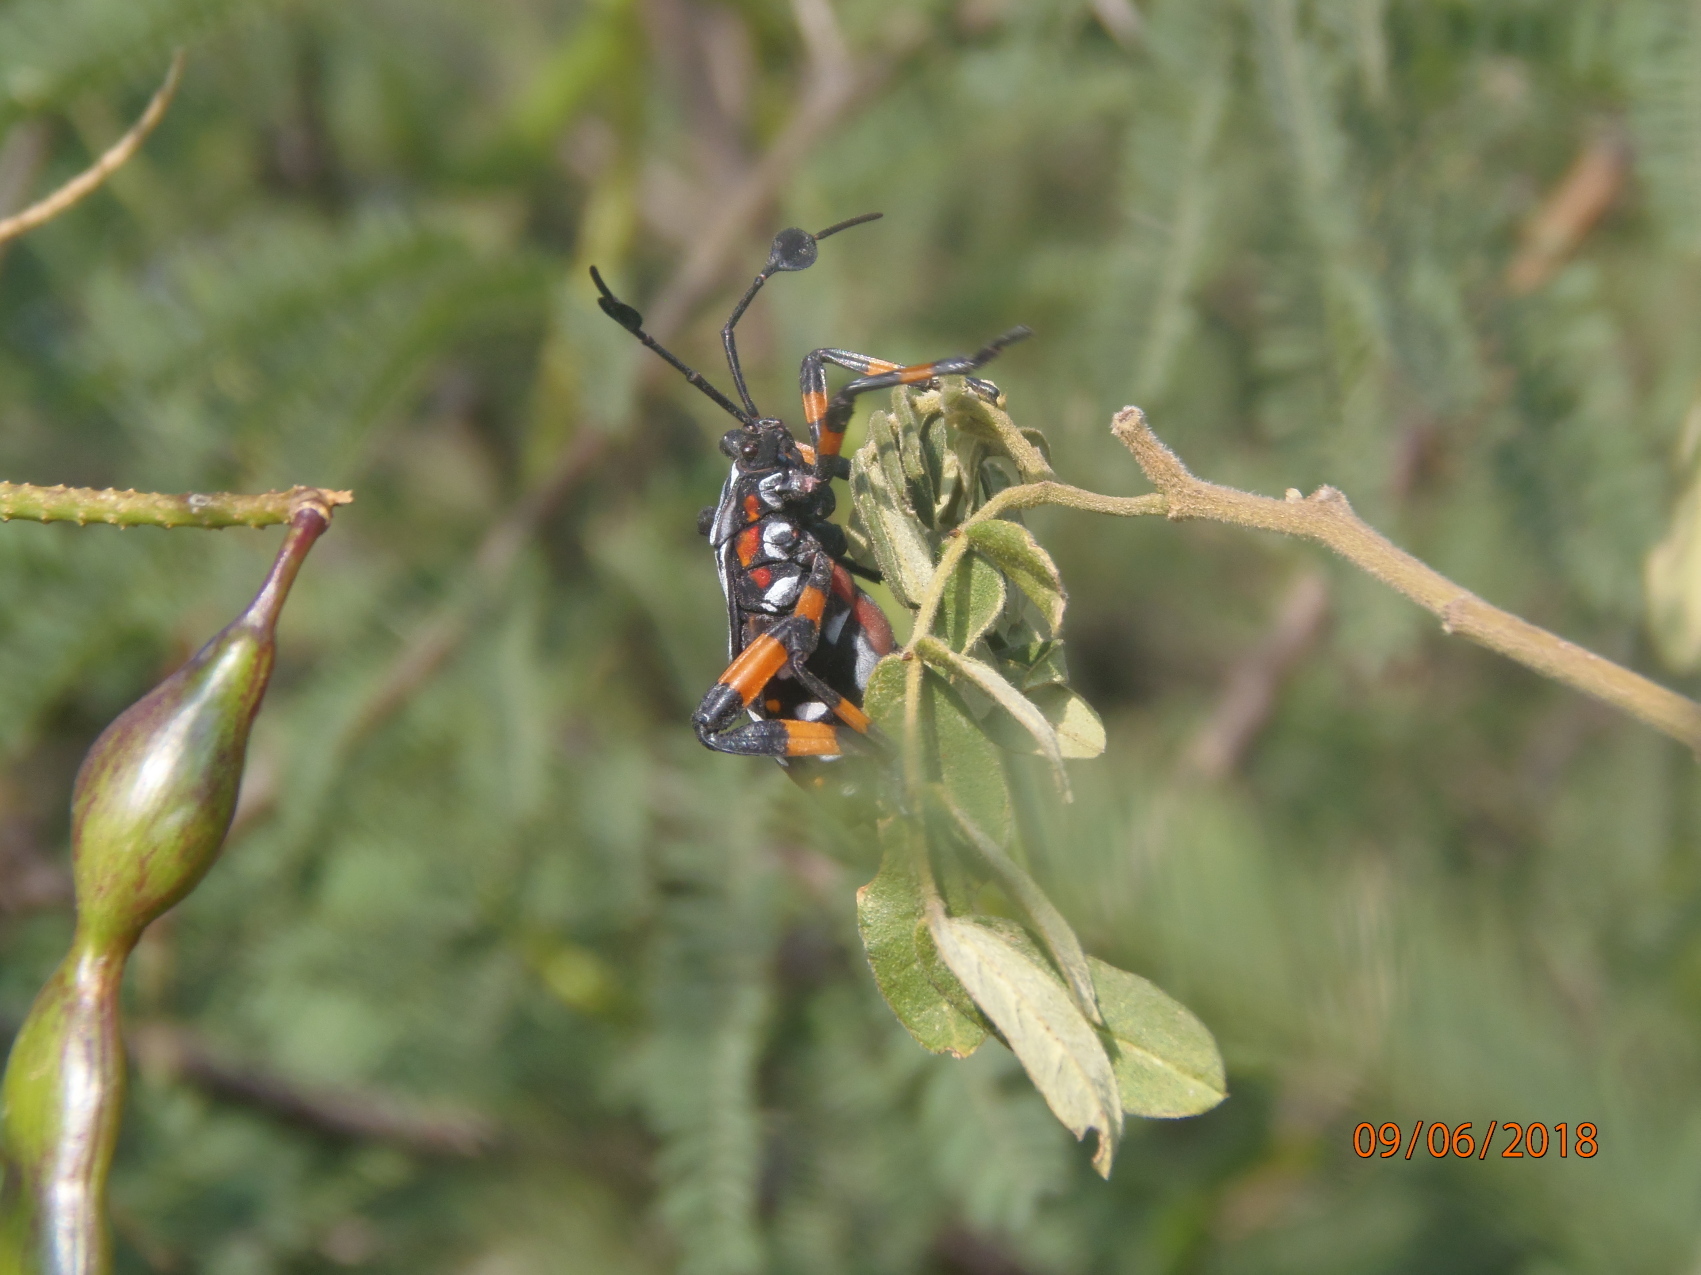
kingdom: Animalia
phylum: Arthropoda
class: Insecta
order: Hemiptera
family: Coreidae
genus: Thasus
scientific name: Thasus
